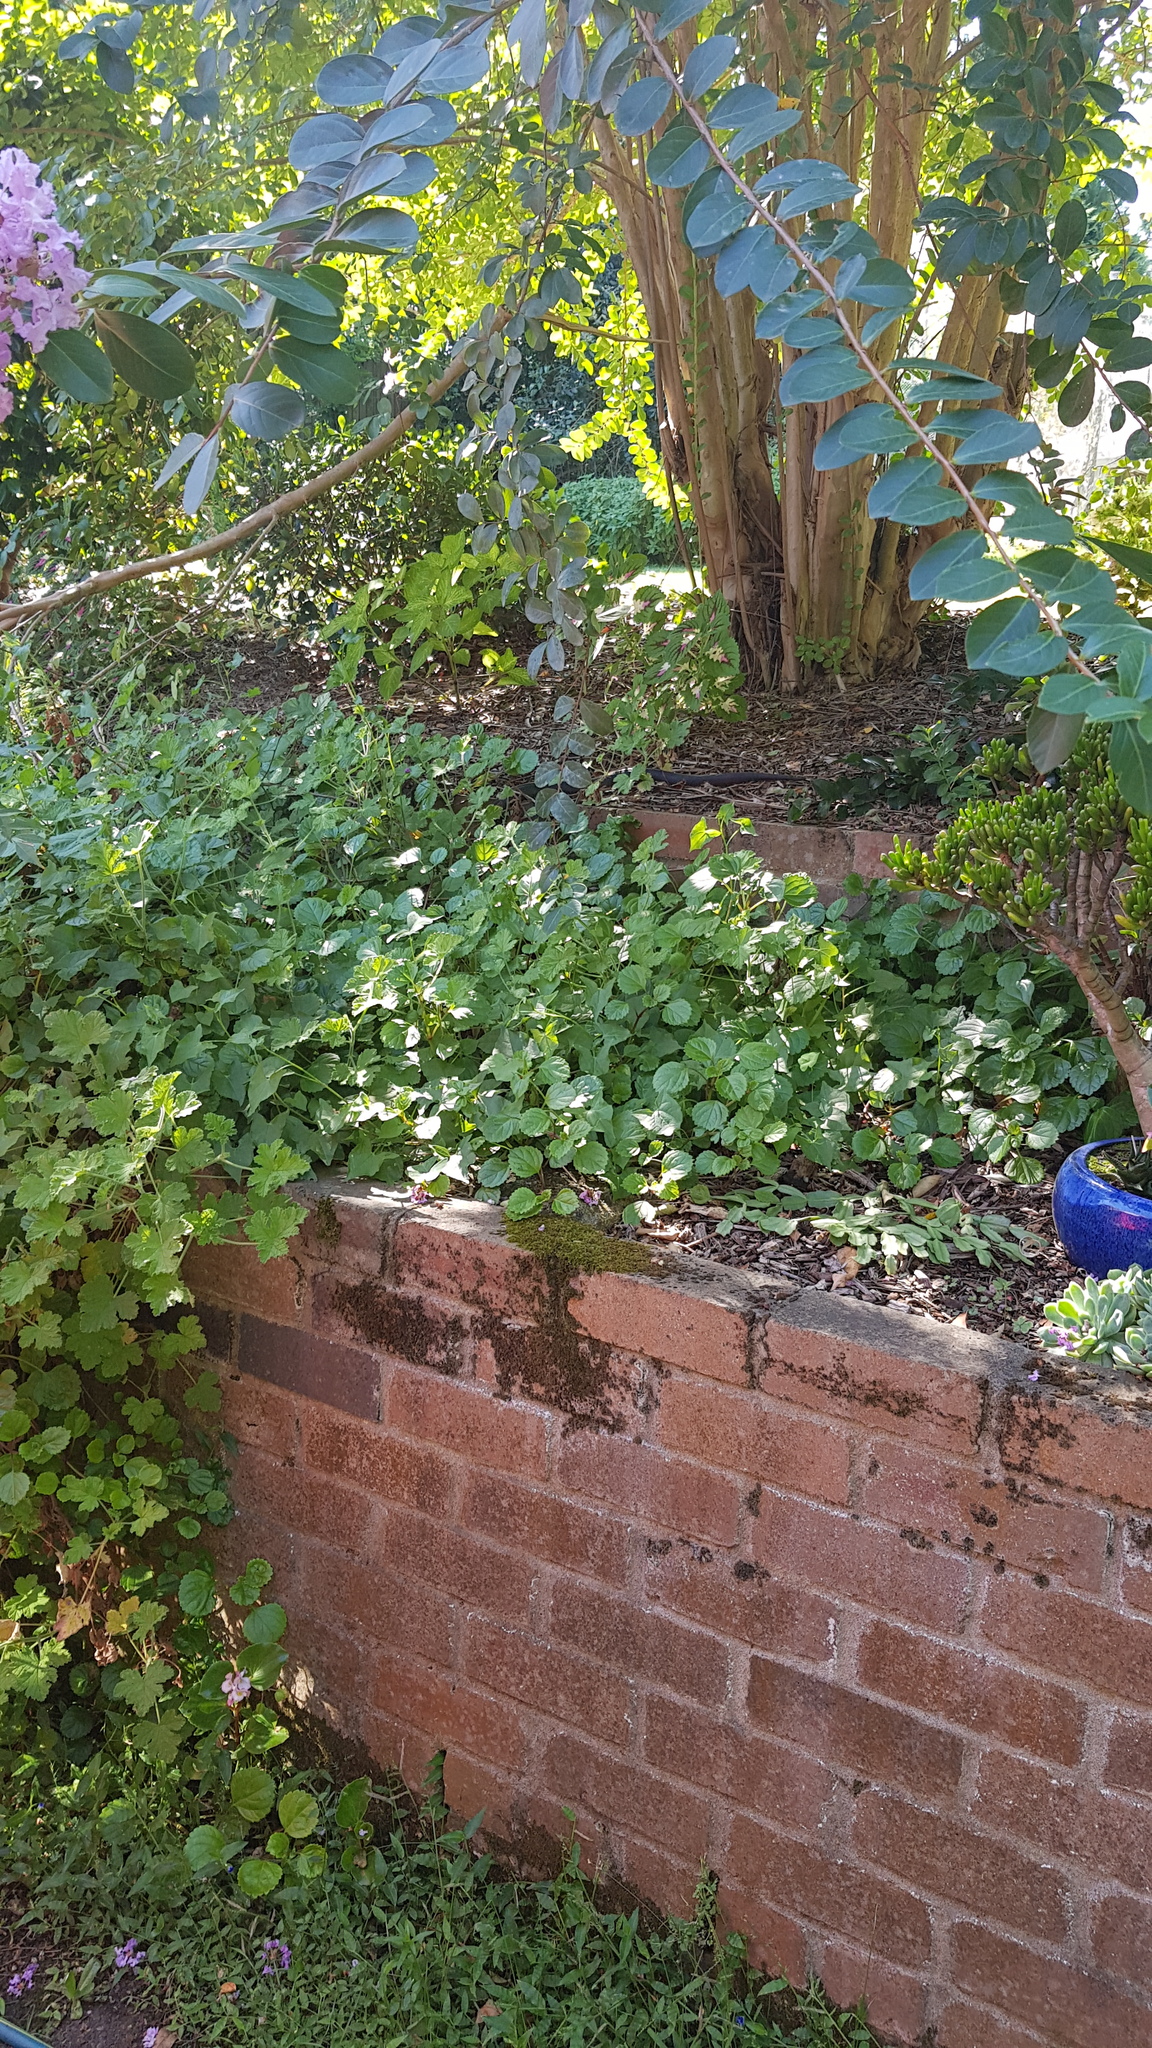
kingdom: Animalia
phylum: Chordata
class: Squamata
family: Elapidae
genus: Pseudechis
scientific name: Pseudechis porphyriacus
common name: Australian black snake
